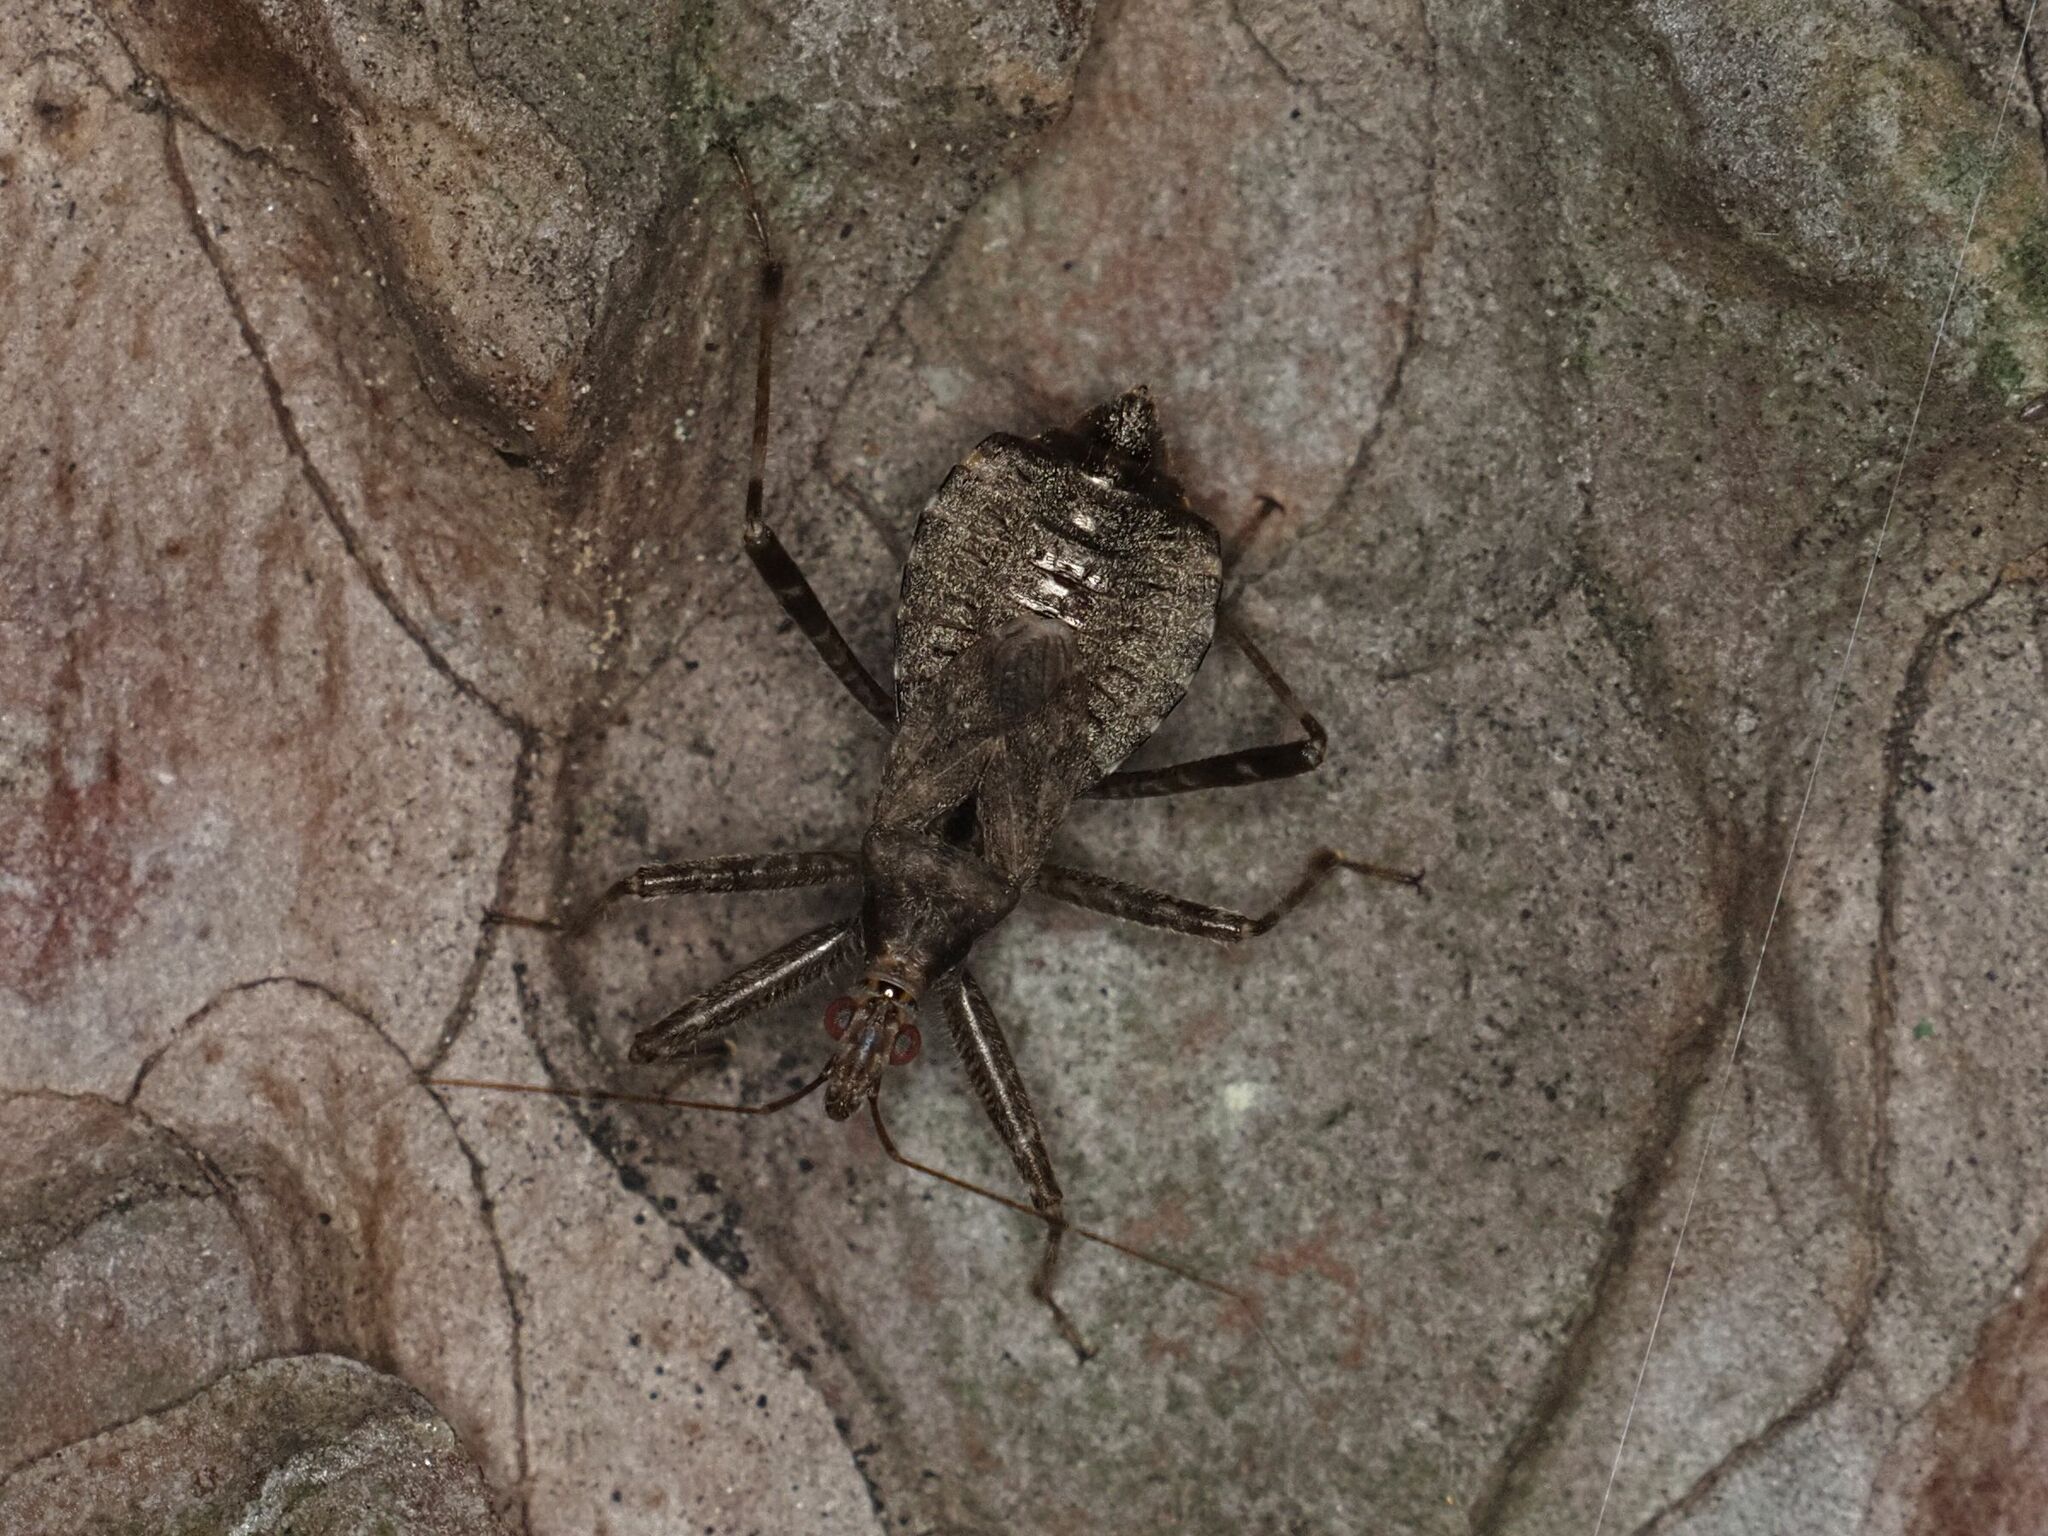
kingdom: Animalia
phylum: Arthropoda
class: Insecta
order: Hemiptera
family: Nabidae
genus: Himacerus
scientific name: Himacerus apterus
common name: Tree damsel bug
